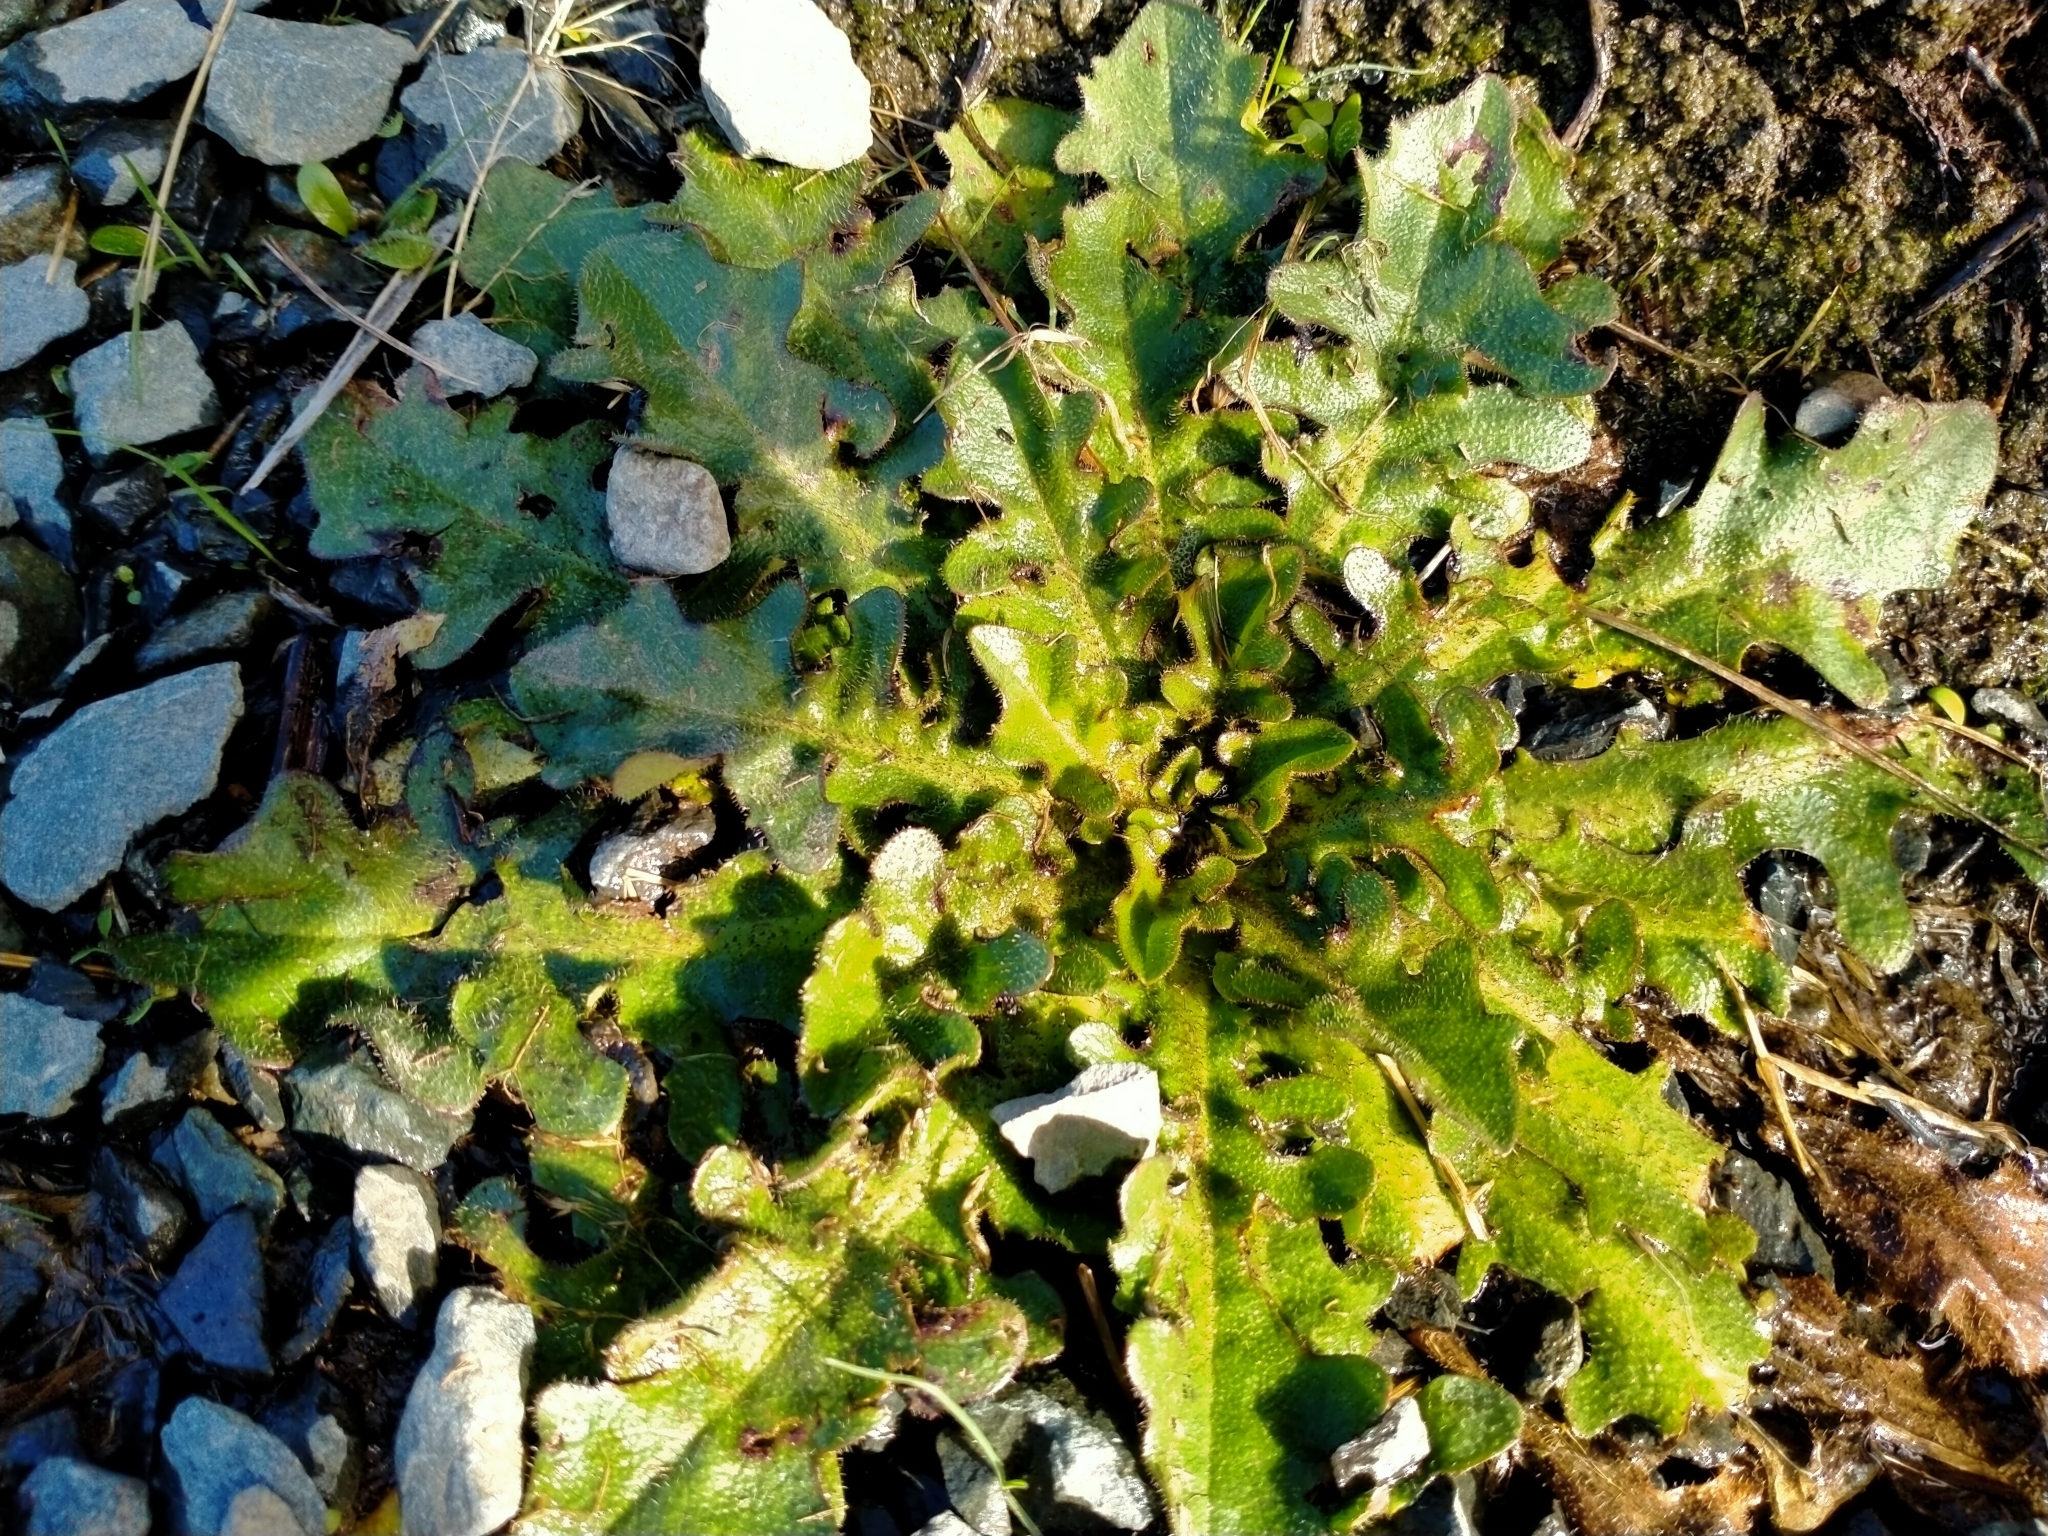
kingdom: Plantae
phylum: Tracheophyta
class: Magnoliopsida
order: Asterales
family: Asteraceae
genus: Hypochaeris
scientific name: Hypochaeris radicata
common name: Flatweed
